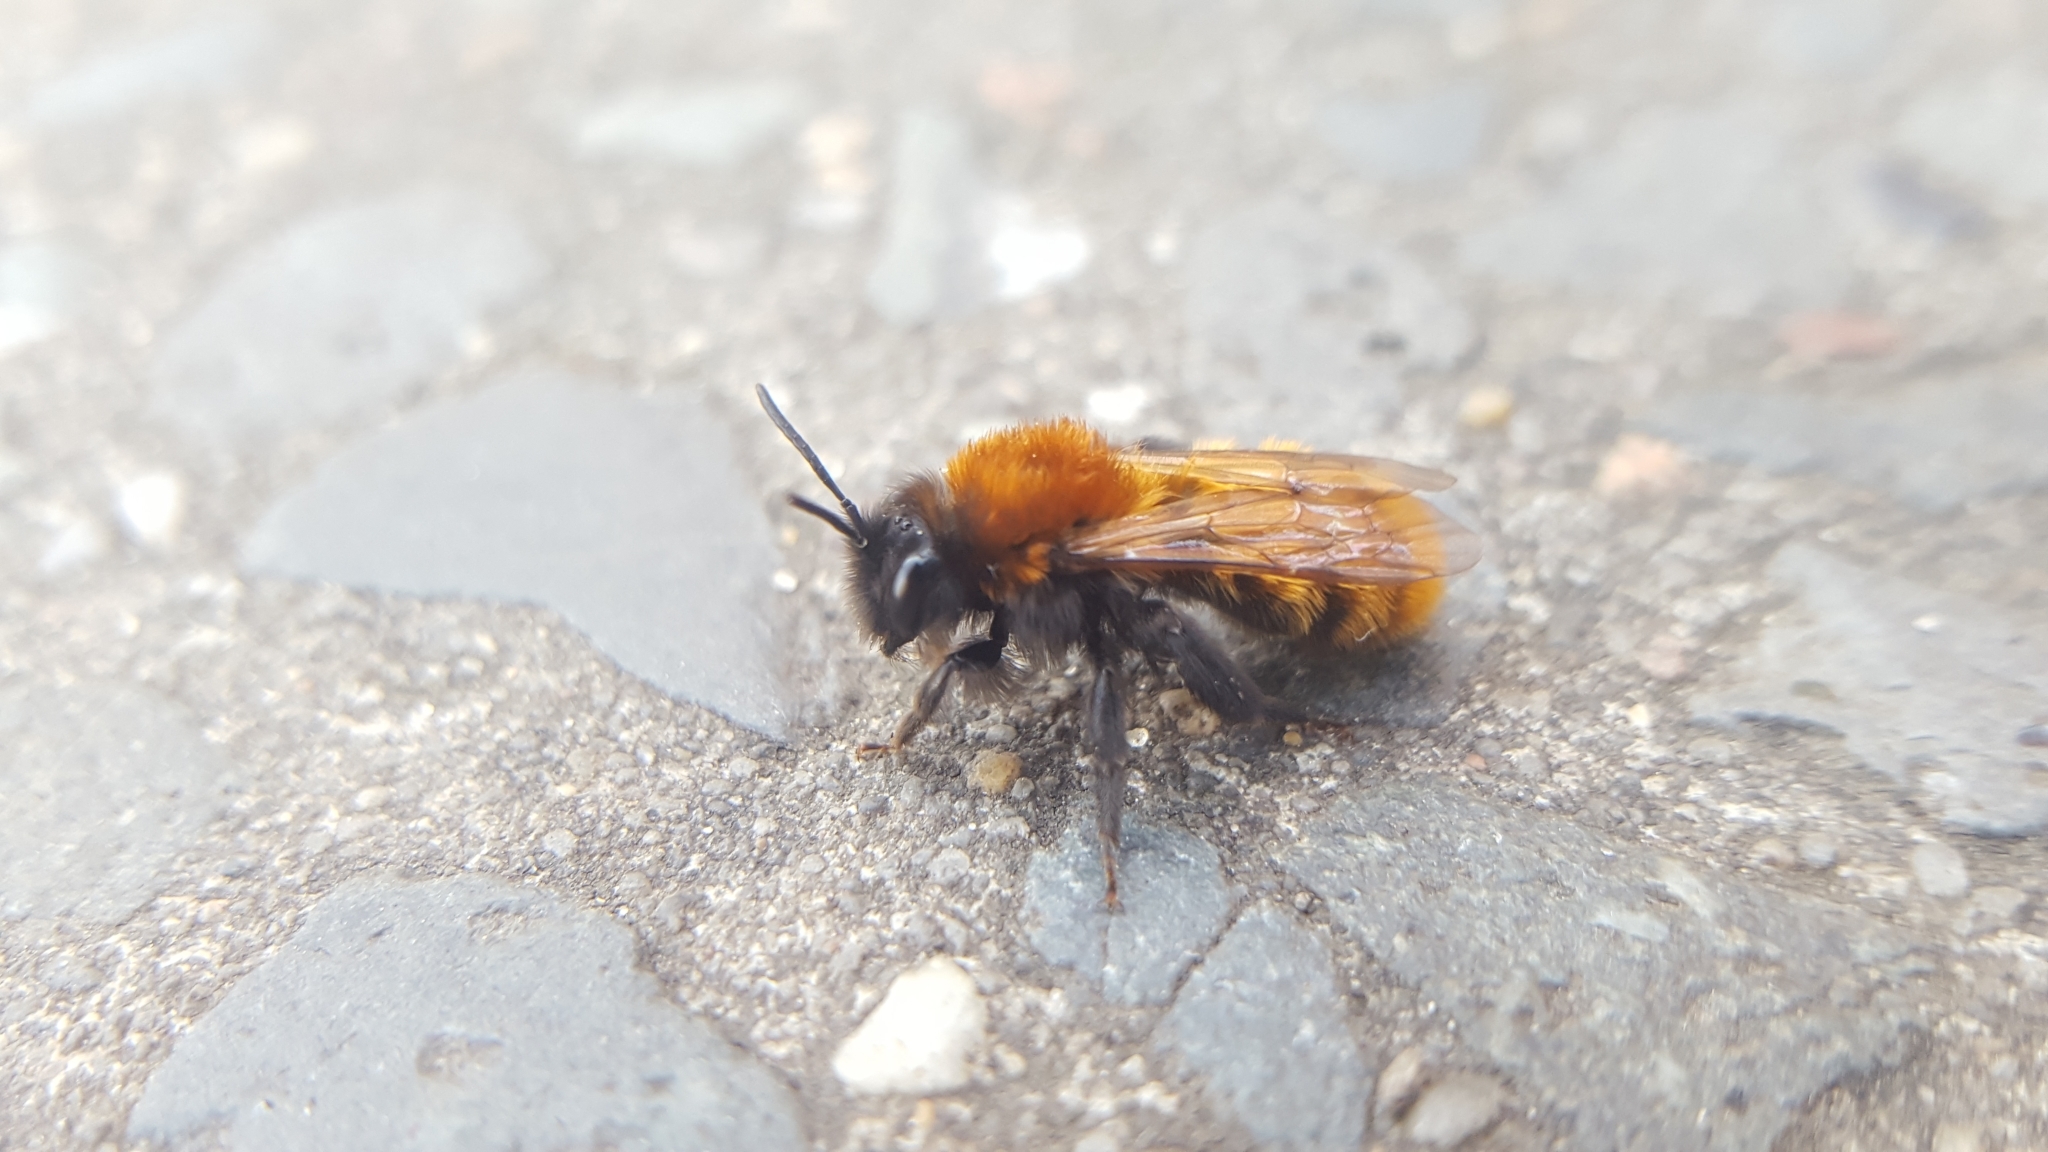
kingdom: Animalia
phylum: Arthropoda
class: Insecta
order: Hymenoptera
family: Andrenidae
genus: Andrena
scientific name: Andrena fulva
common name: Tawny mining bee
